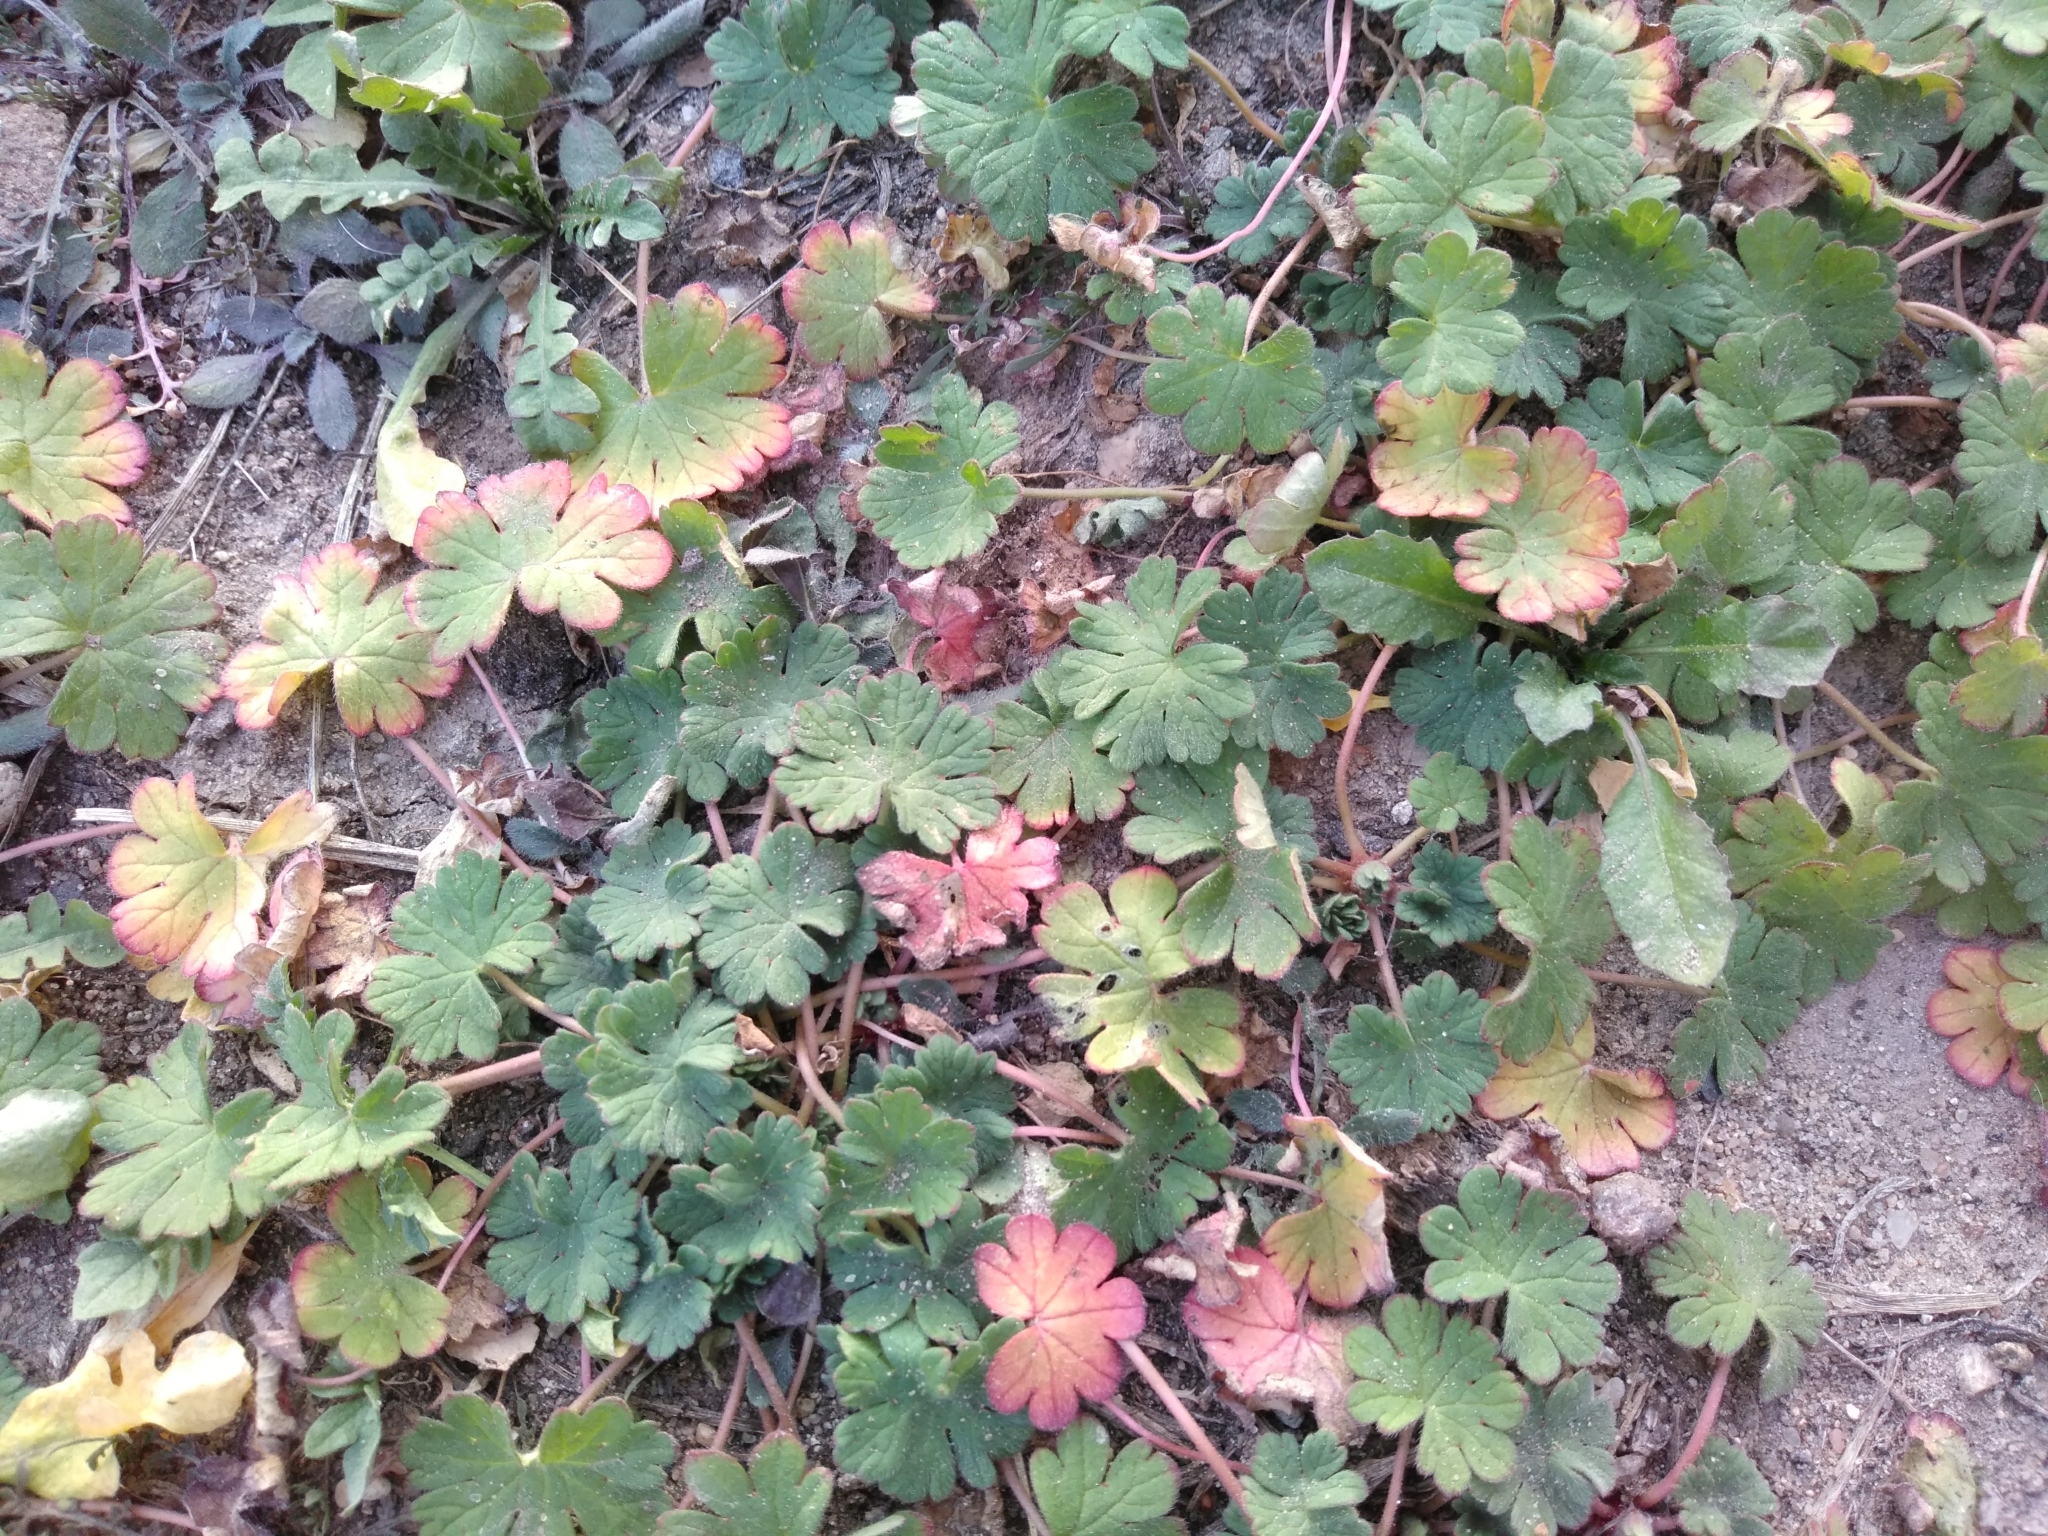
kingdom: Plantae
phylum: Tracheophyta
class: Magnoliopsida
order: Geraniales
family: Geraniaceae
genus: Geranium
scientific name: Geranium pusillum
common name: Small geranium
